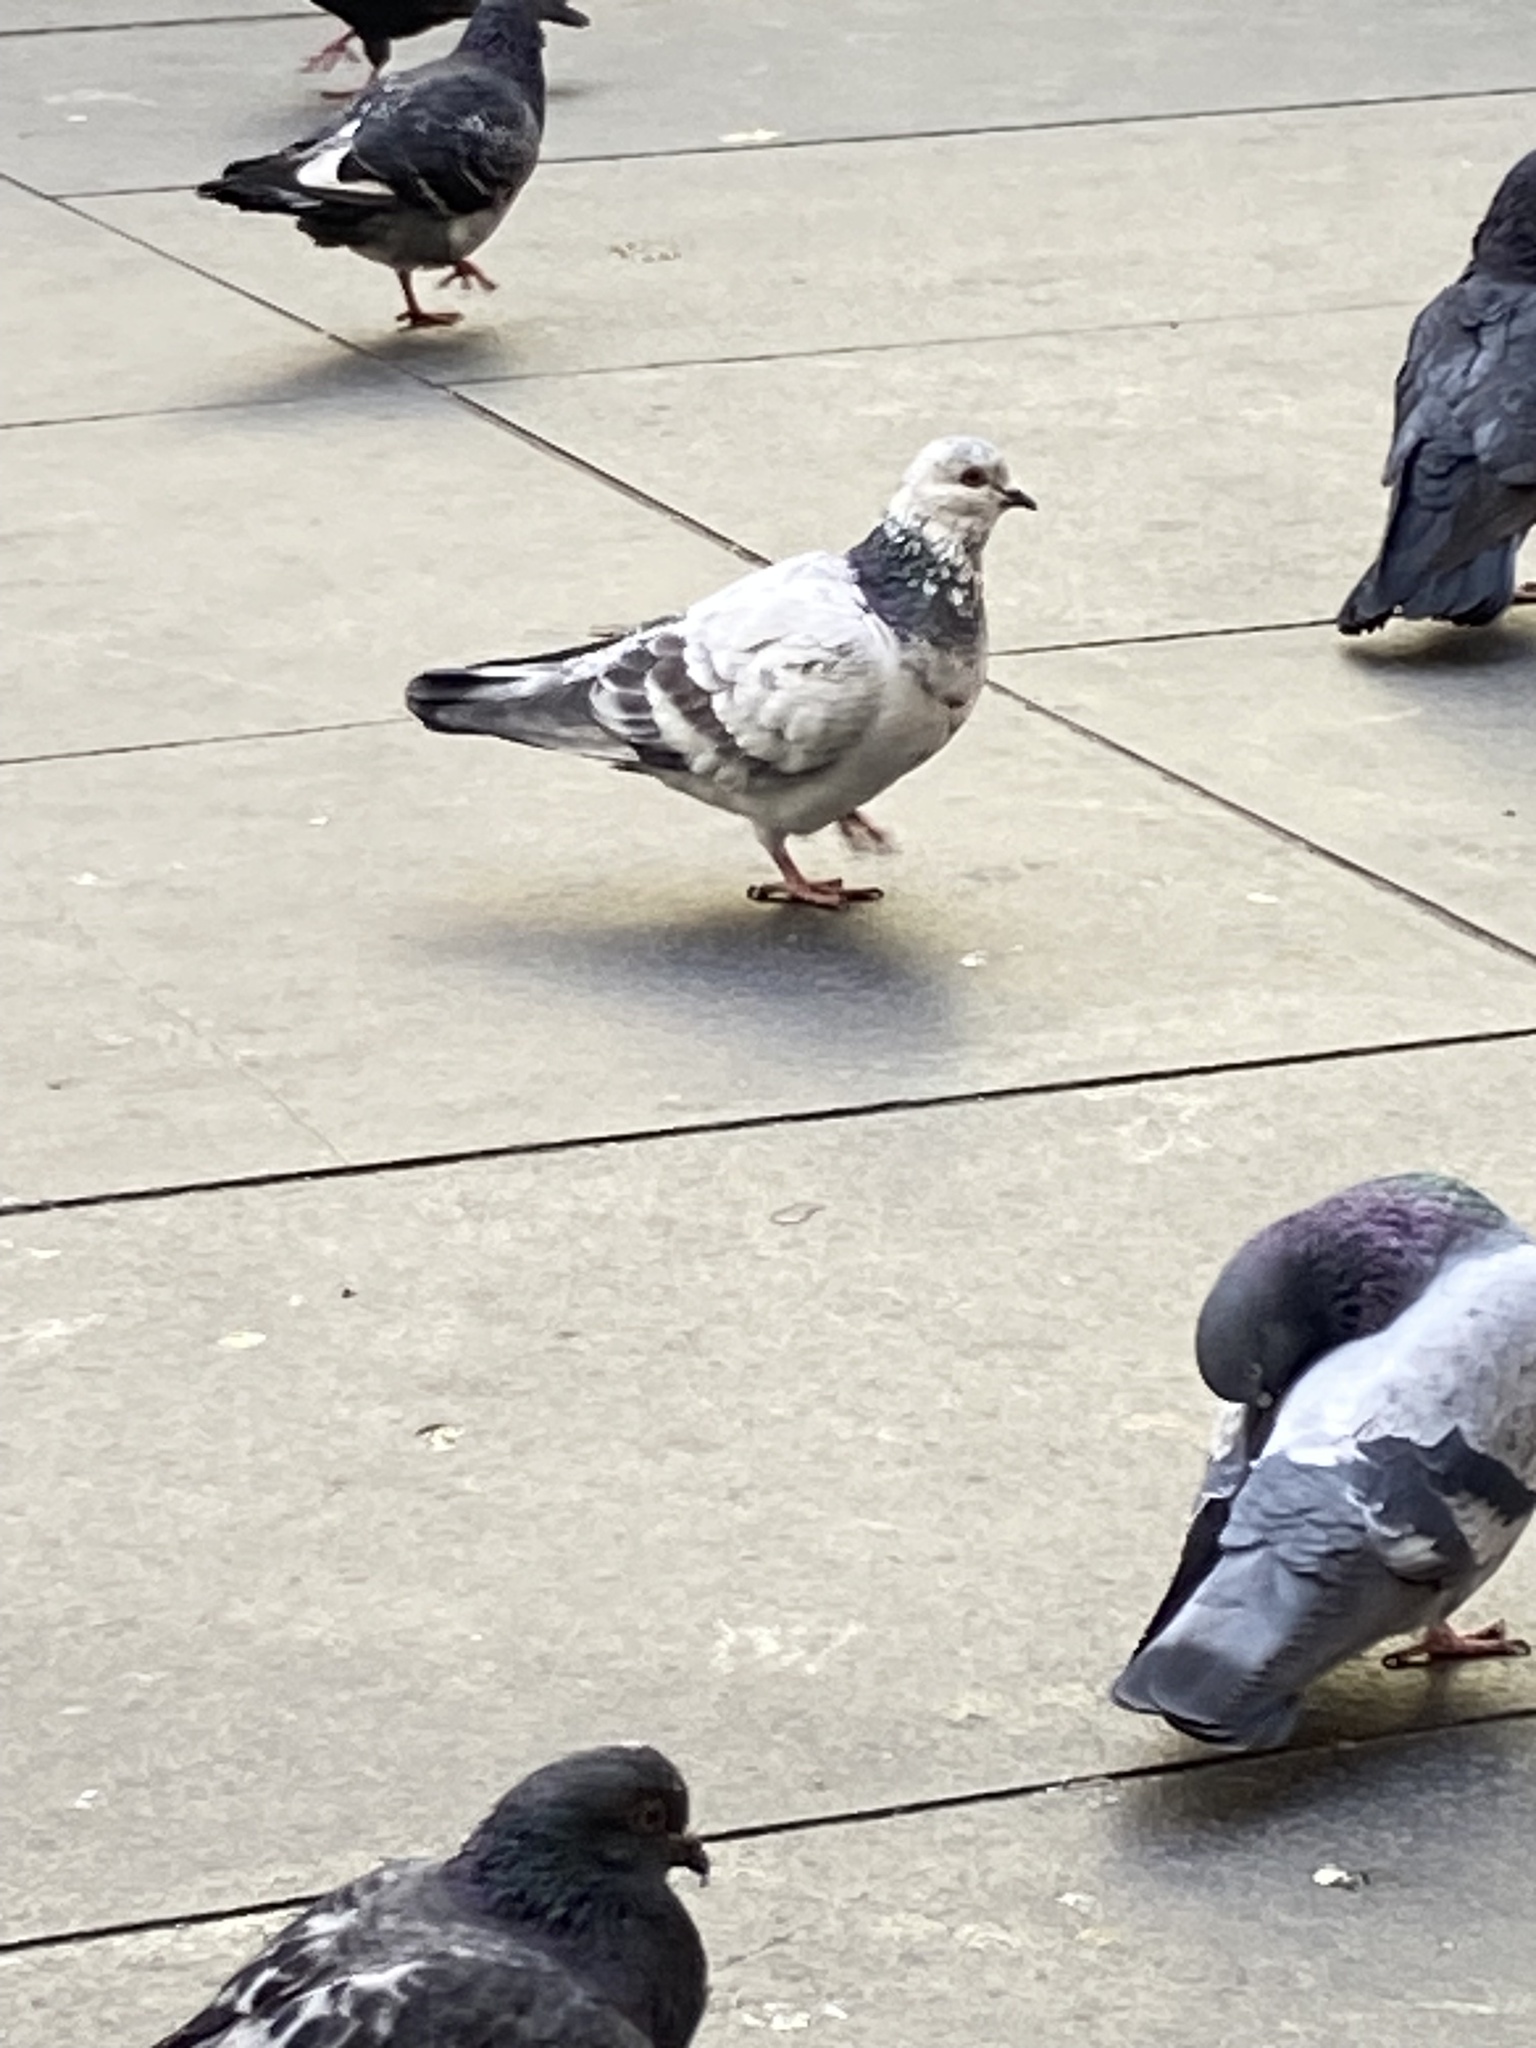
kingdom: Animalia
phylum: Chordata
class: Aves
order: Columbiformes
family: Columbidae
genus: Columba
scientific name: Columba livia
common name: Rock pigeon
